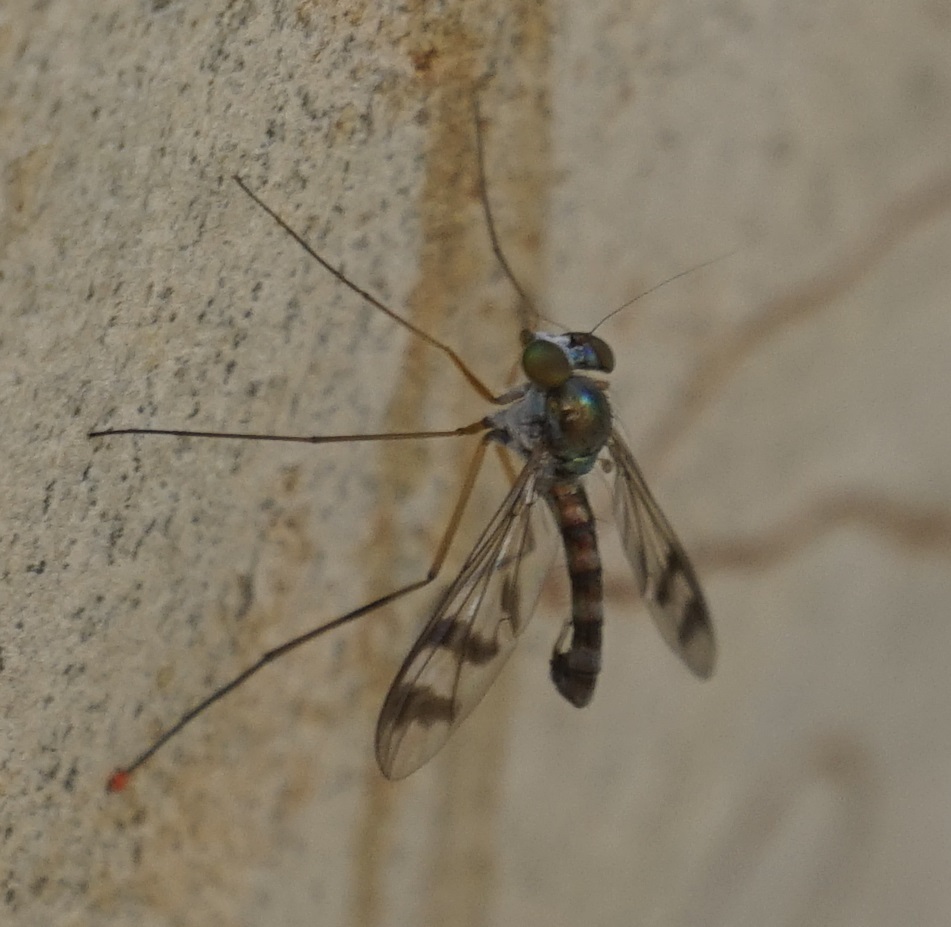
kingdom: Animalia
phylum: Arthropoda
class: Insecta
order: Diptera
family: Dolichopodidae
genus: Heteropsilopus
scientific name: Heteropsilopus squamifer
